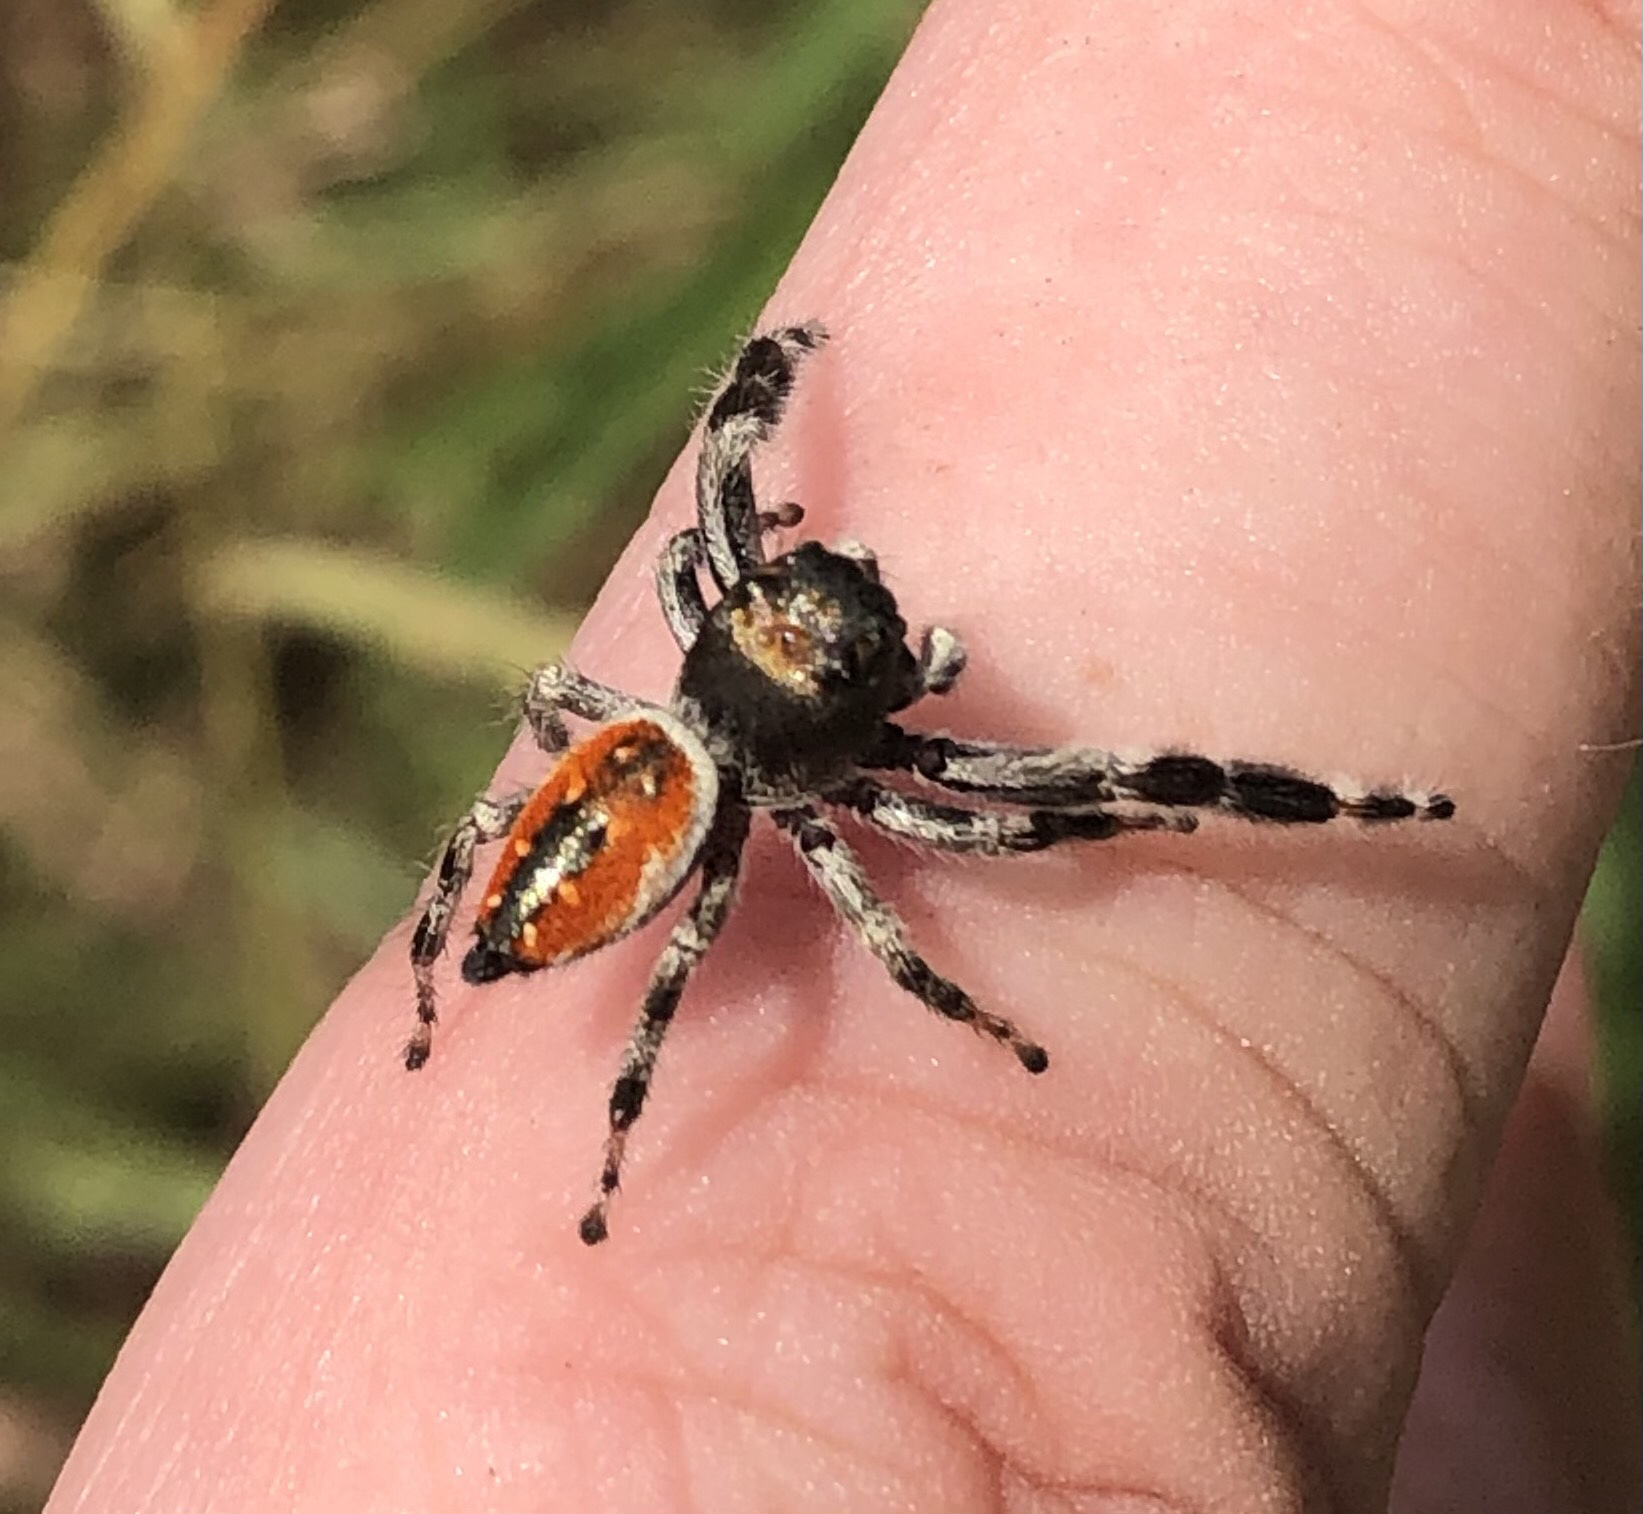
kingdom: Animalia
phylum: Arthropoda
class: Arachnida
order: Araneae
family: Salticidae
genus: Phidippus
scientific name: Phidippus clarus
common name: Brilliant jumping spider
